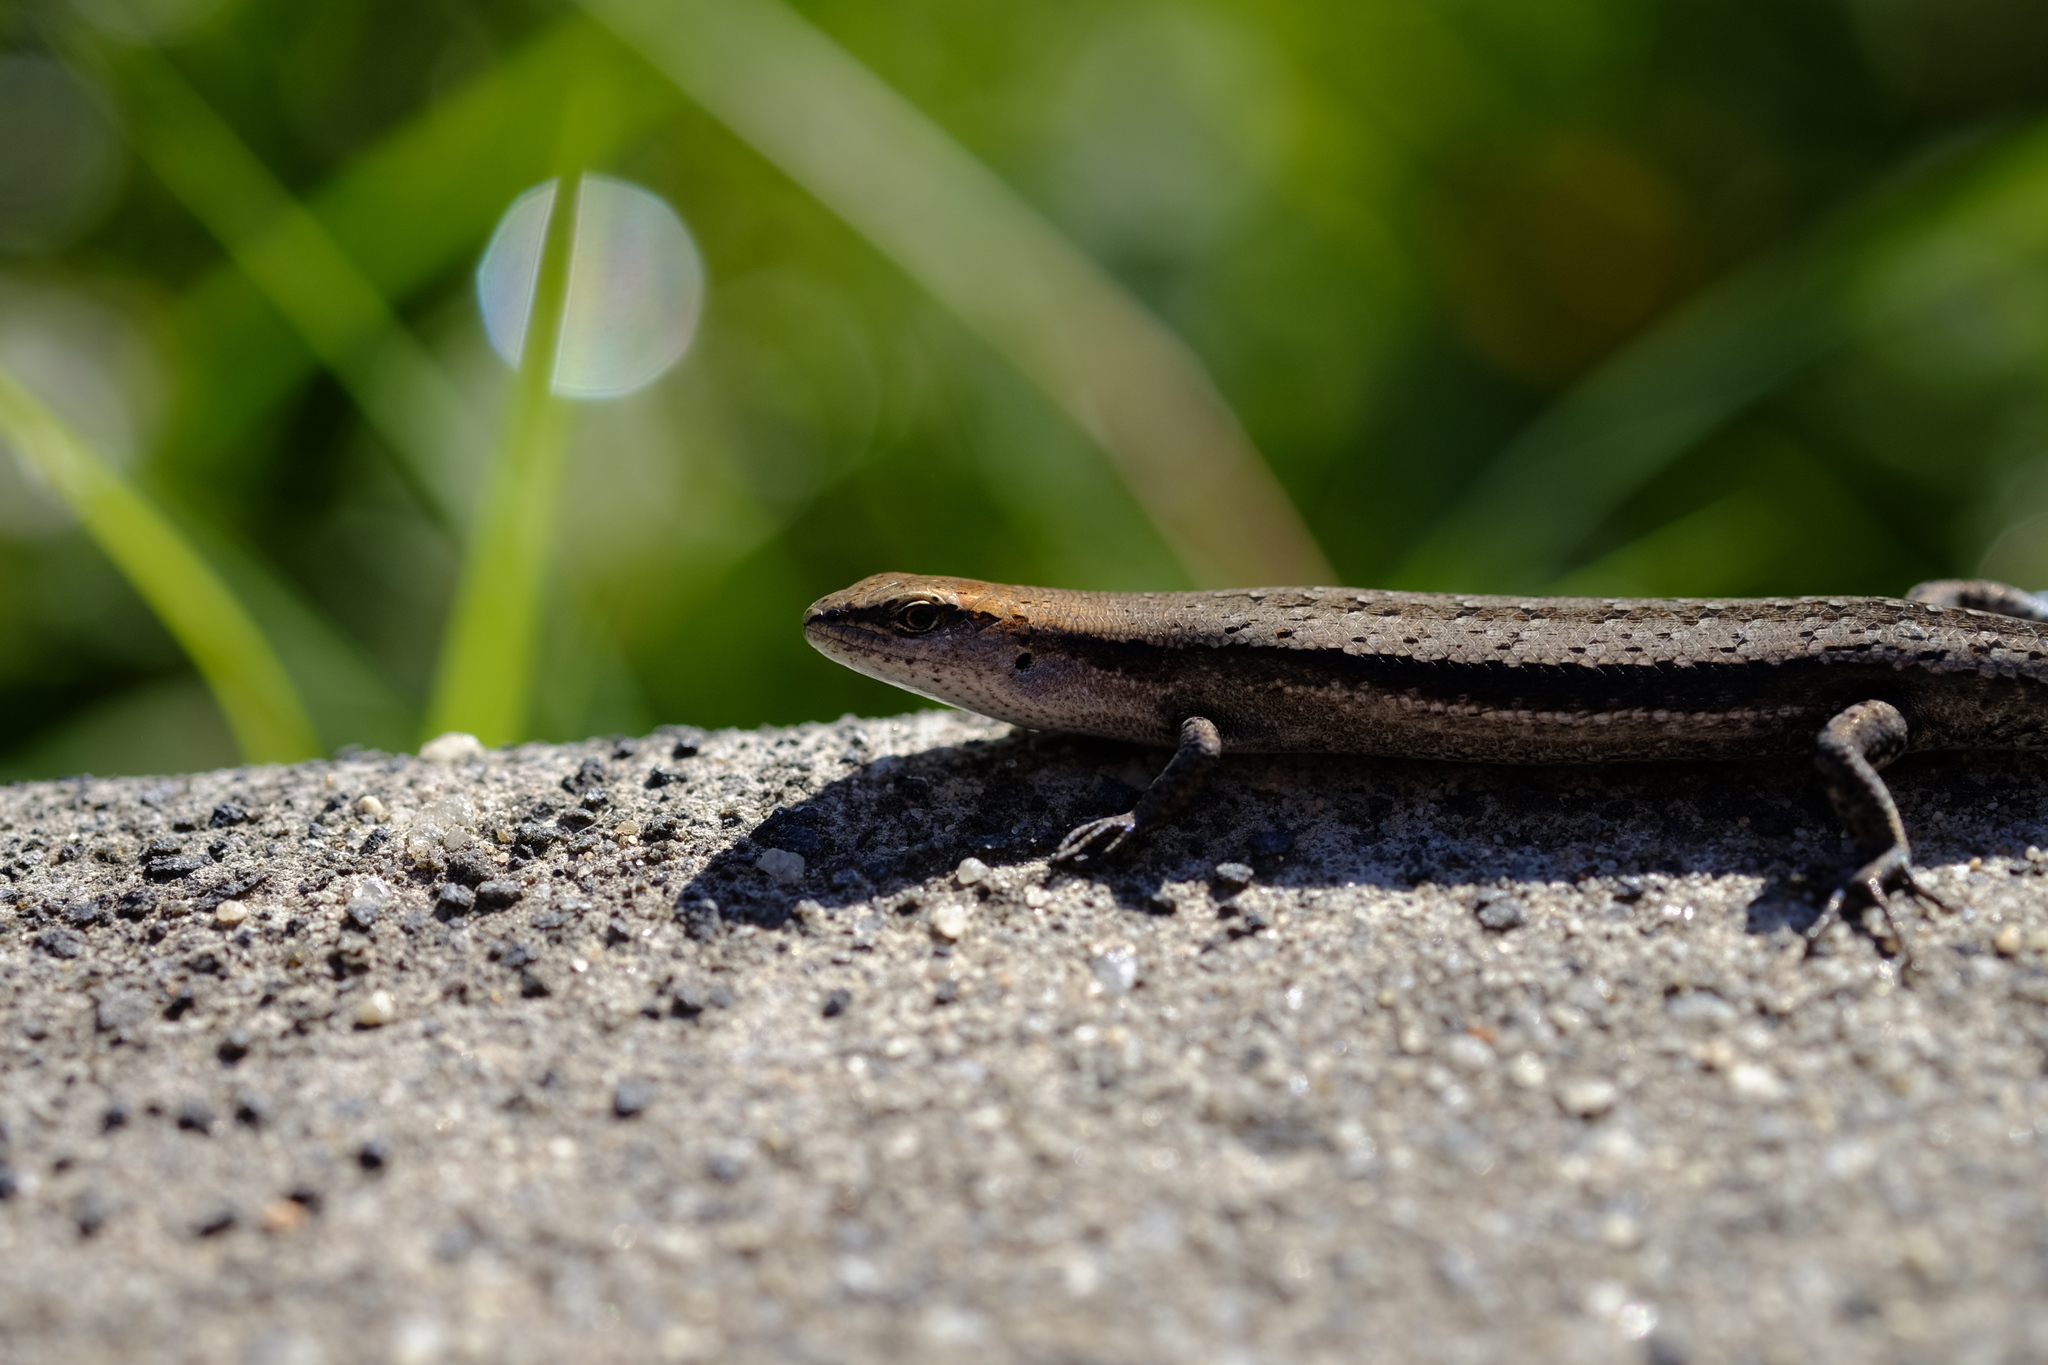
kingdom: Animalia
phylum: Chordata
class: Squamata
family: Scincidae
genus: Lampropholis
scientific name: Lampropholis guichenoti
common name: Garden skink
